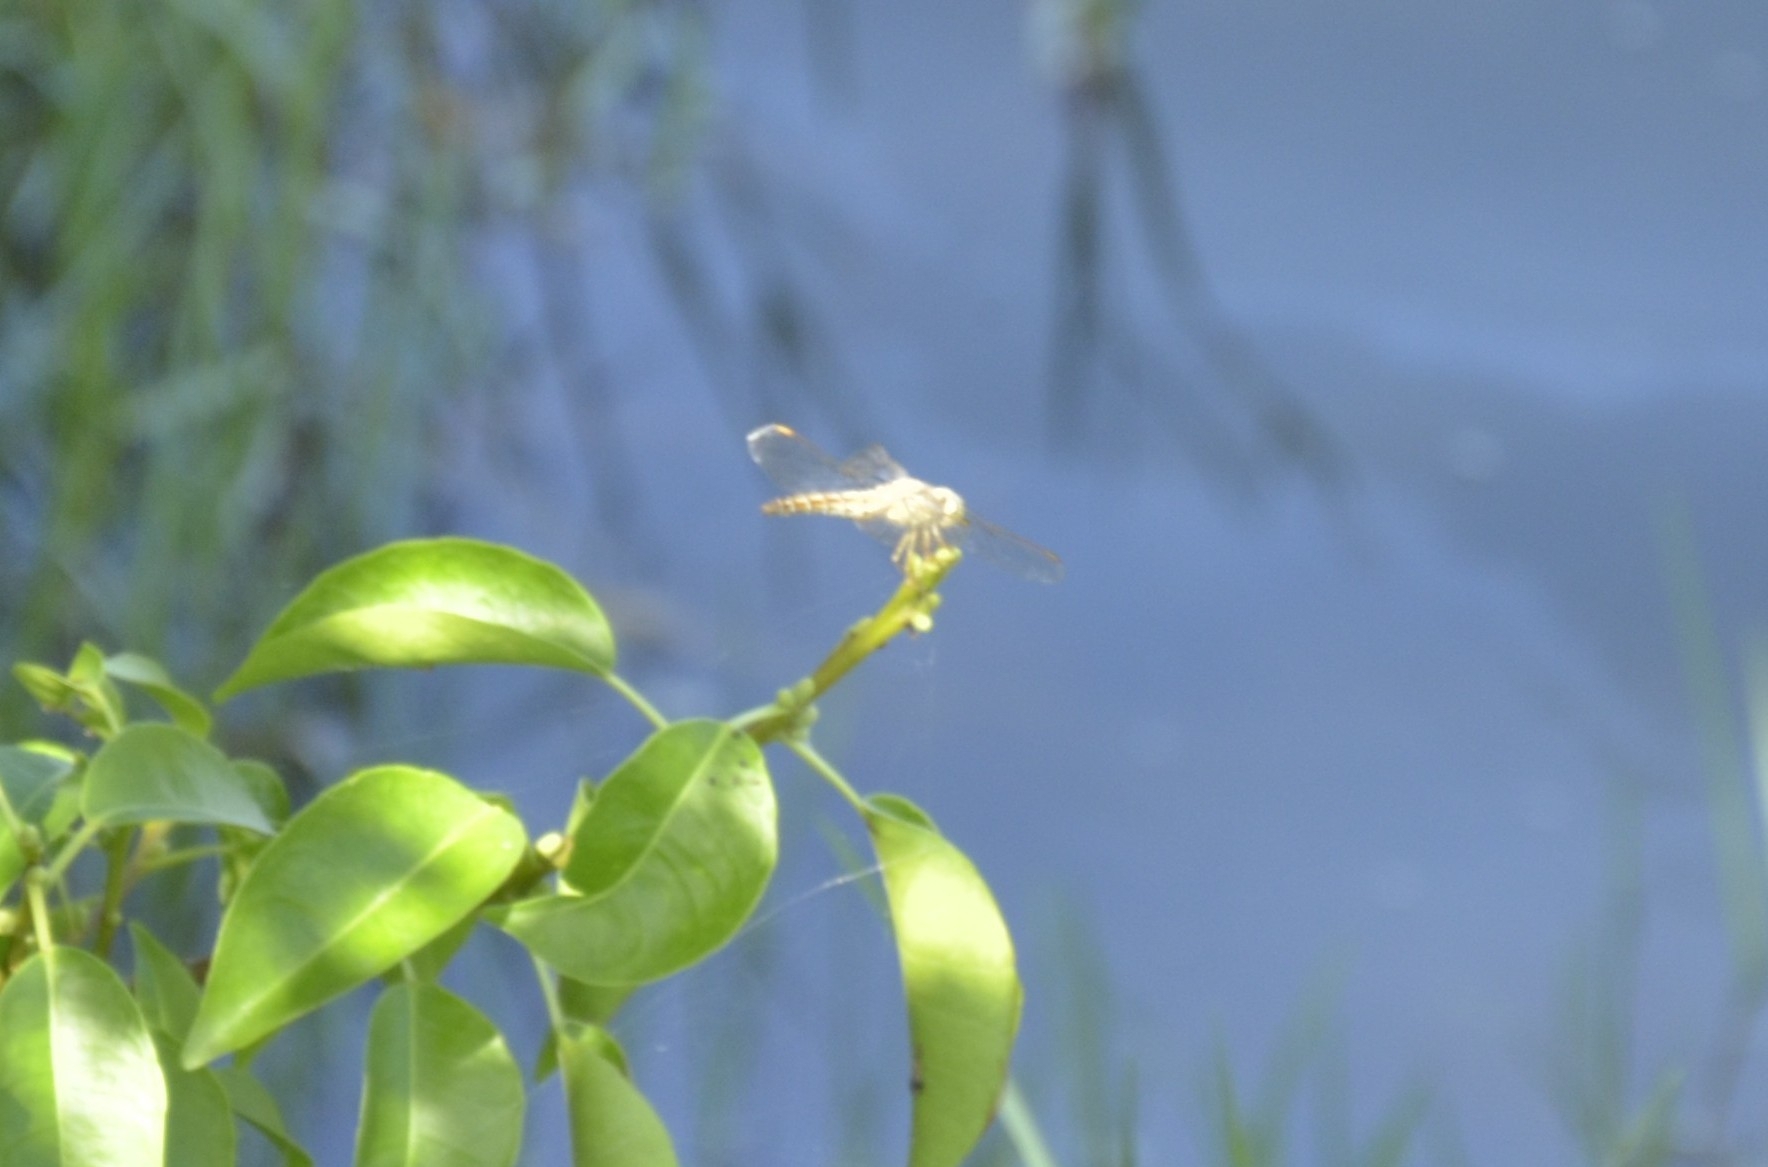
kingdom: Animalia
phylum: Arthropoda
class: Insecta
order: Odonata
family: Libellulidae
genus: Brachythemis
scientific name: Brachythemis contaminata
